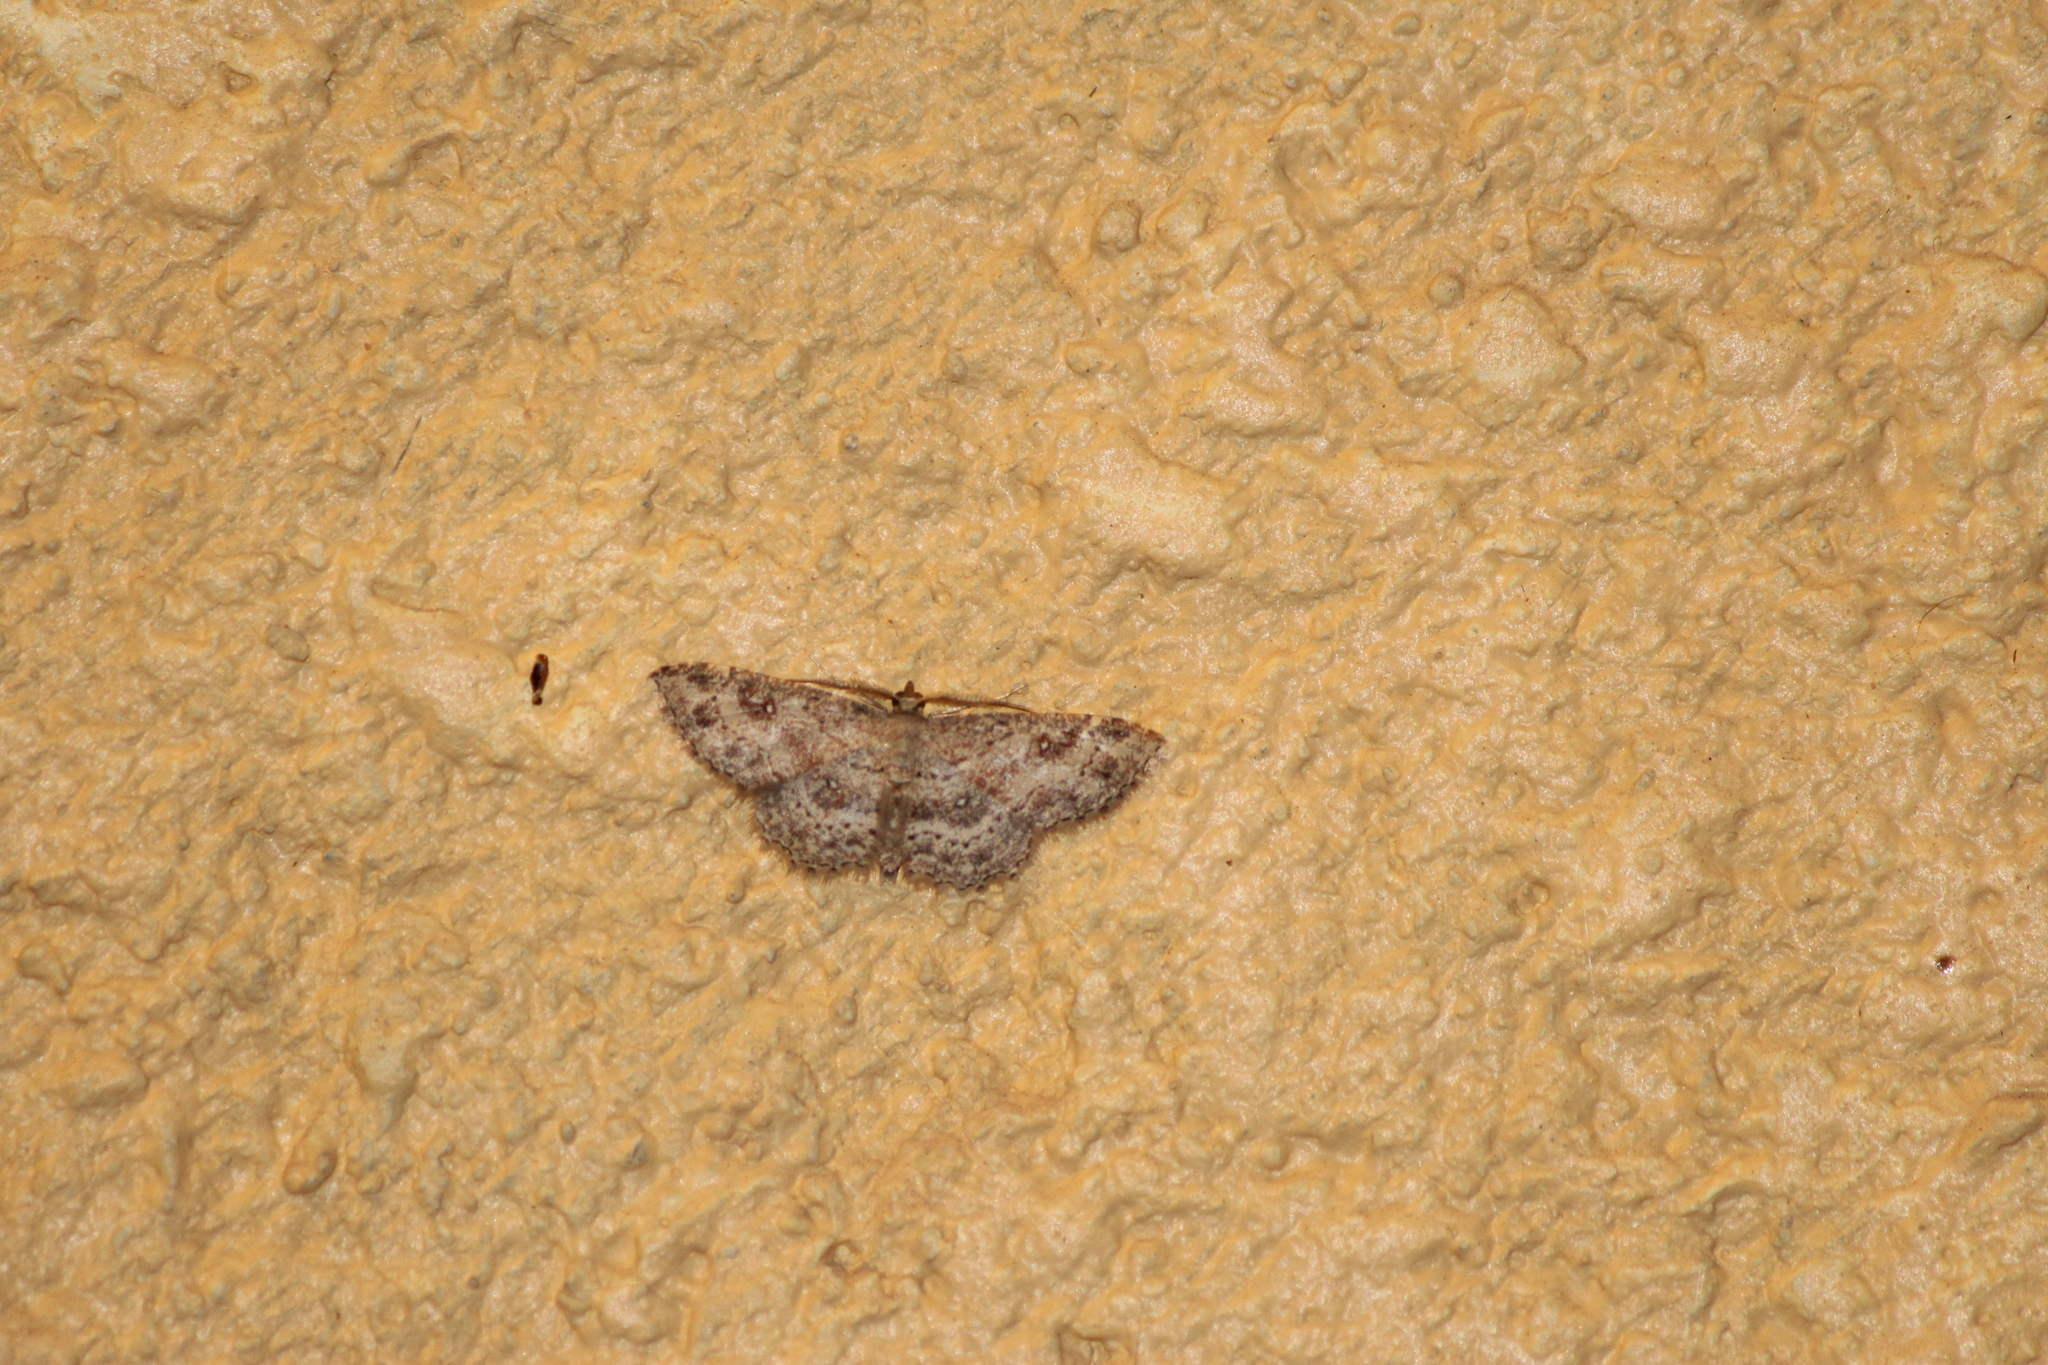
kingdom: Animalia
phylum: Arthropoda
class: Insecta
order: Lepidoptera
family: Geometridae
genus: Cyclophora
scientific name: Cyclophora nanaria
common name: Cankerworm
